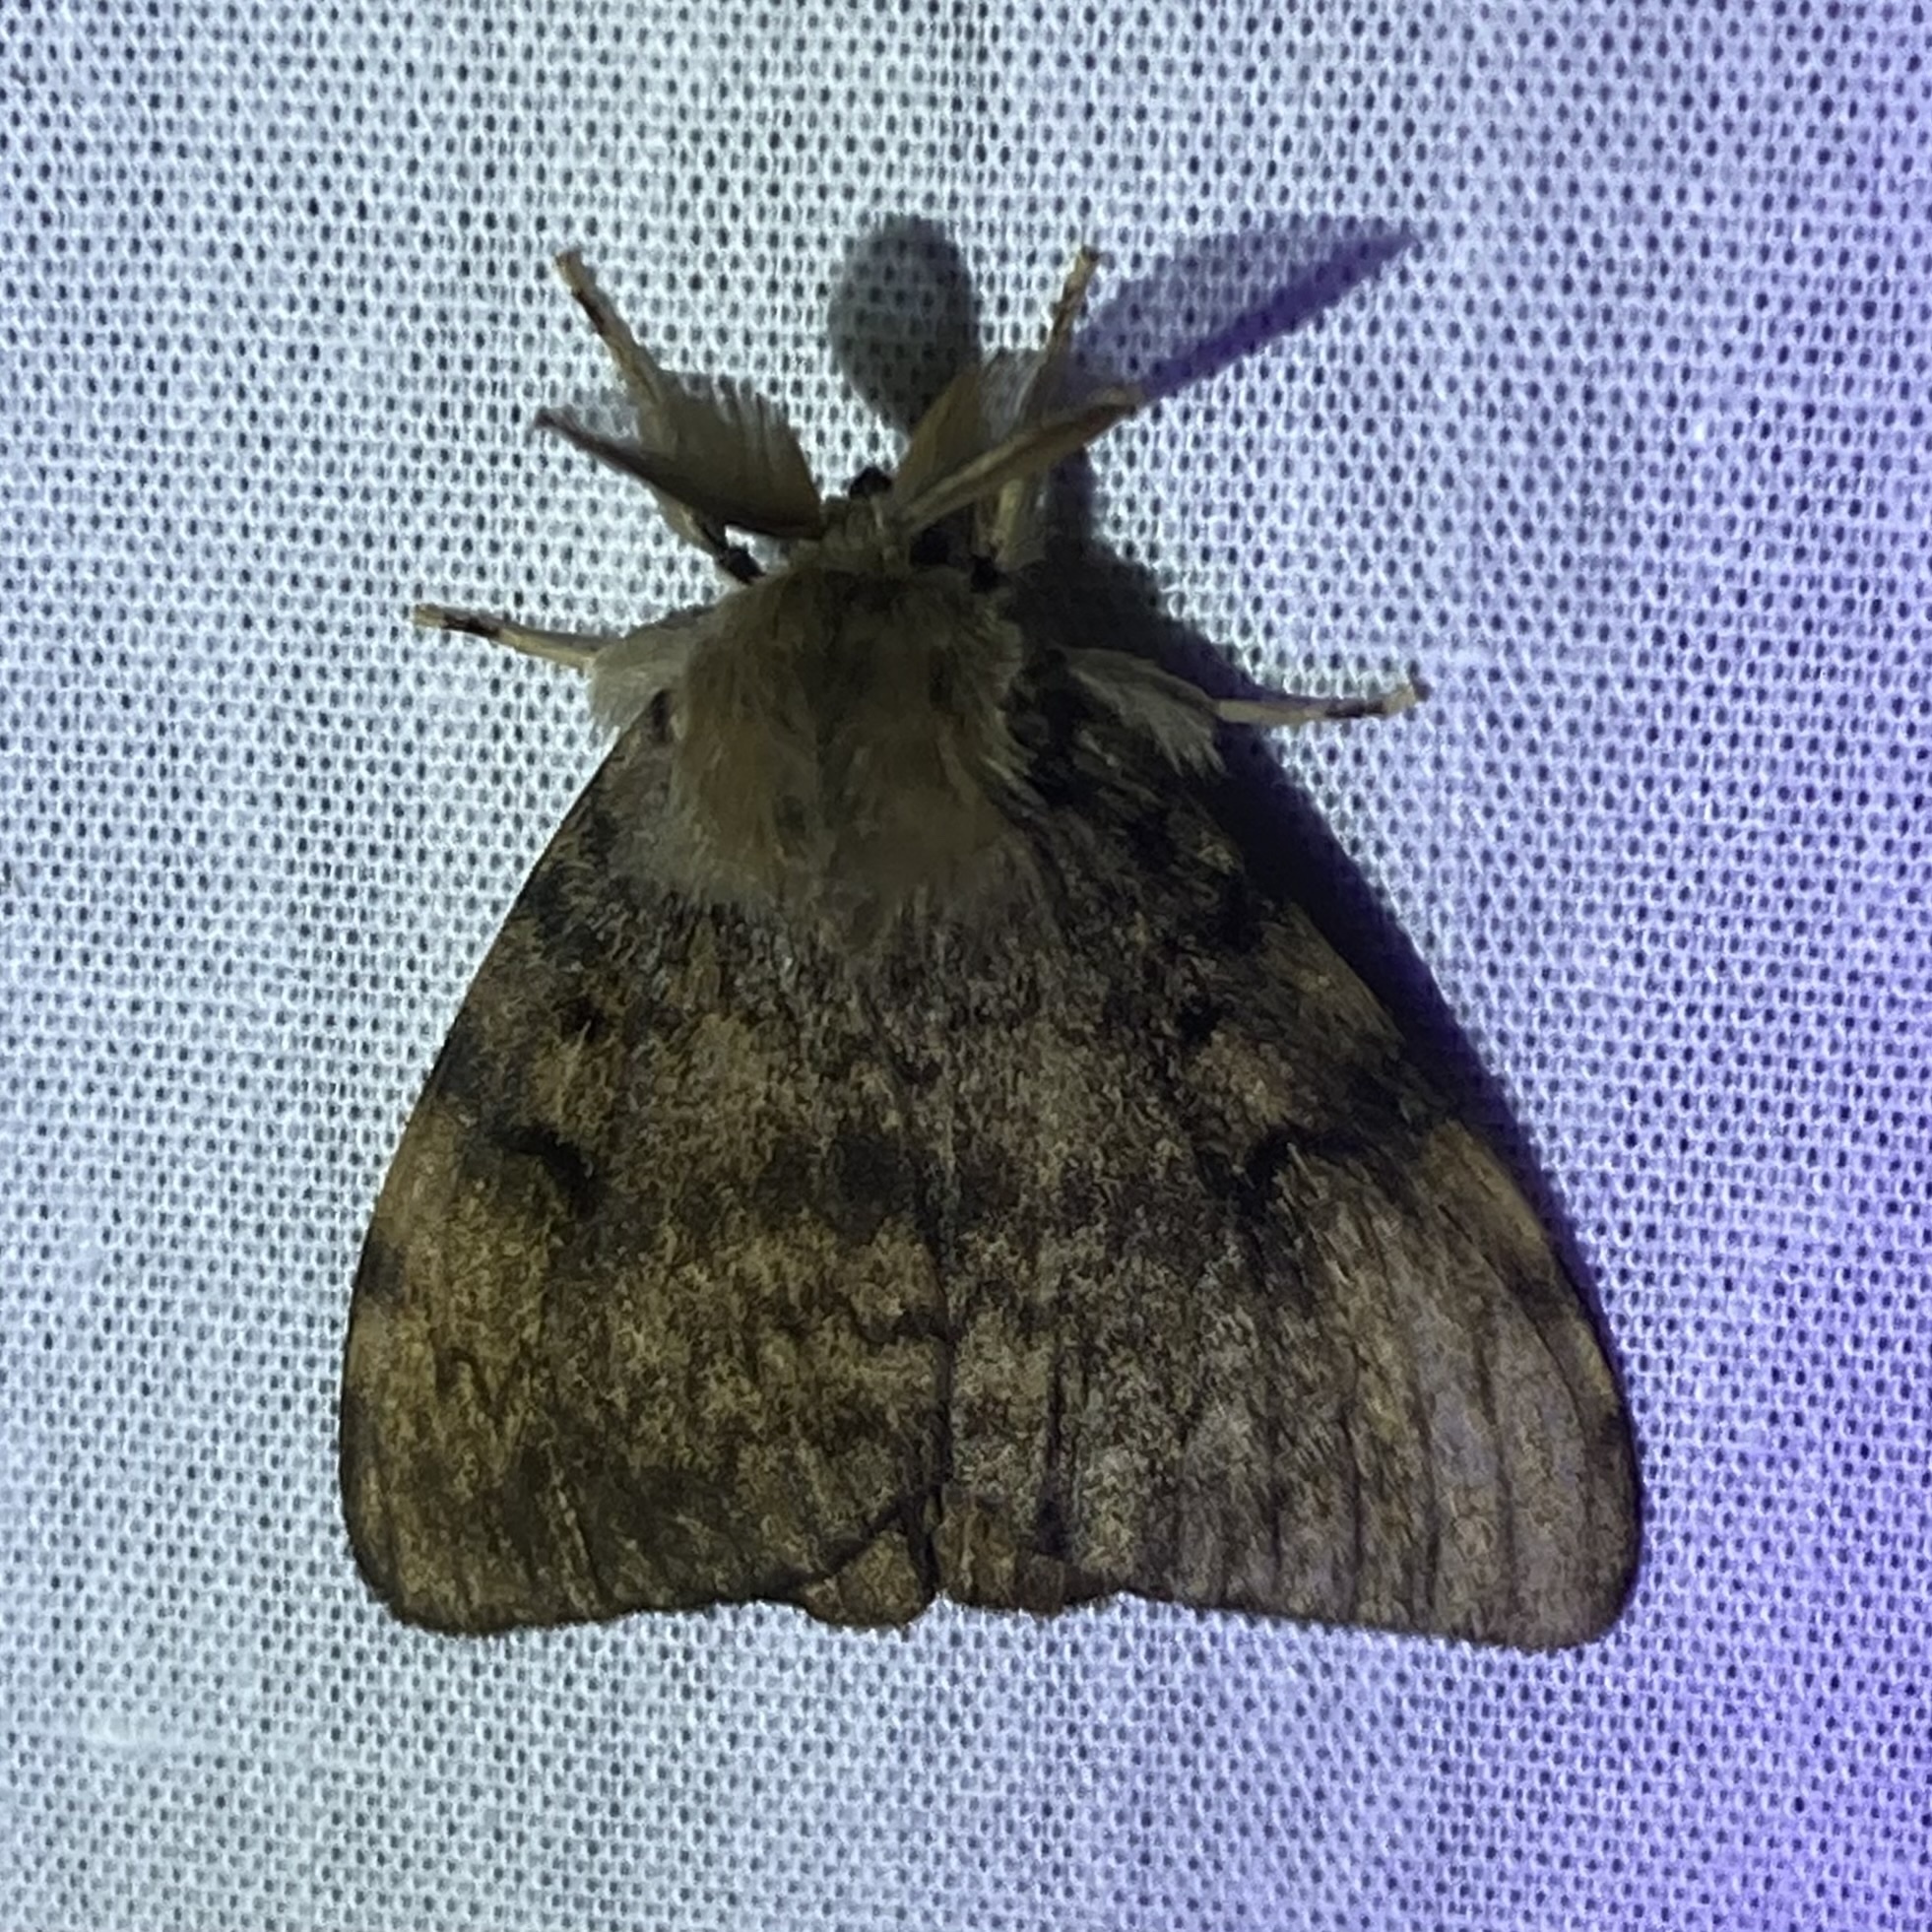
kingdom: Animalia
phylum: Arthropoda
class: Insecta
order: Lepidoptera
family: Erebidae
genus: Lymantria
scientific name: Lymantria dispar
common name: Gypsy moth
